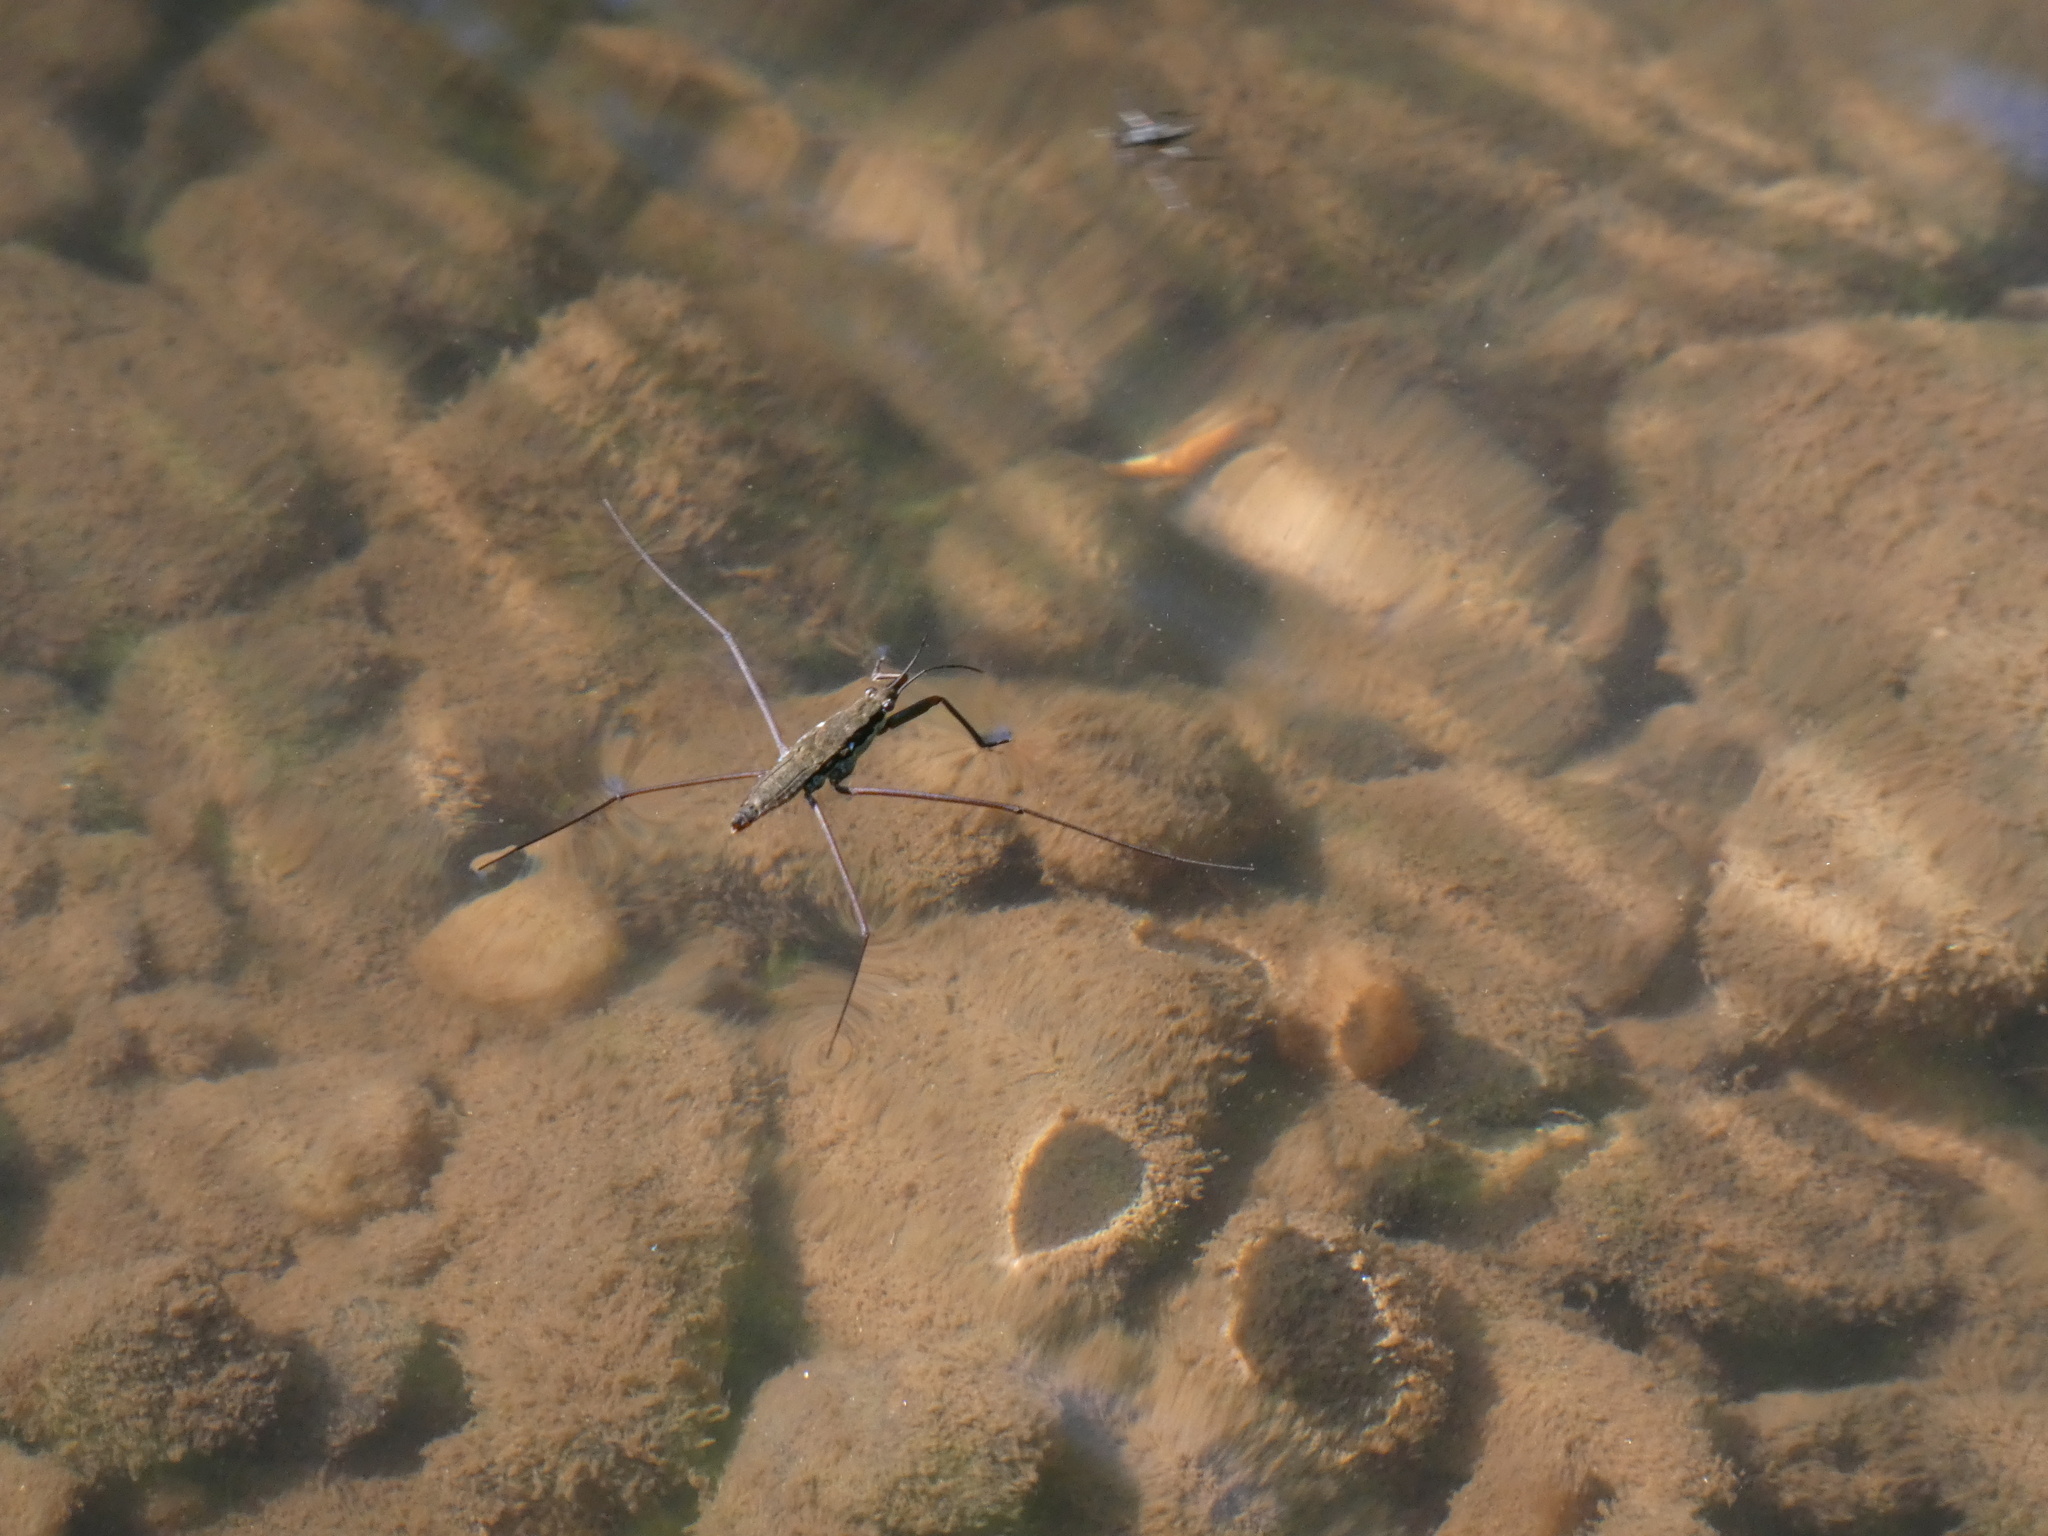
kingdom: Animalia
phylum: Arthropoda
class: Insecta
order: Hemiptera
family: Gerridae
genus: Aquarius
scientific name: Aquarius
